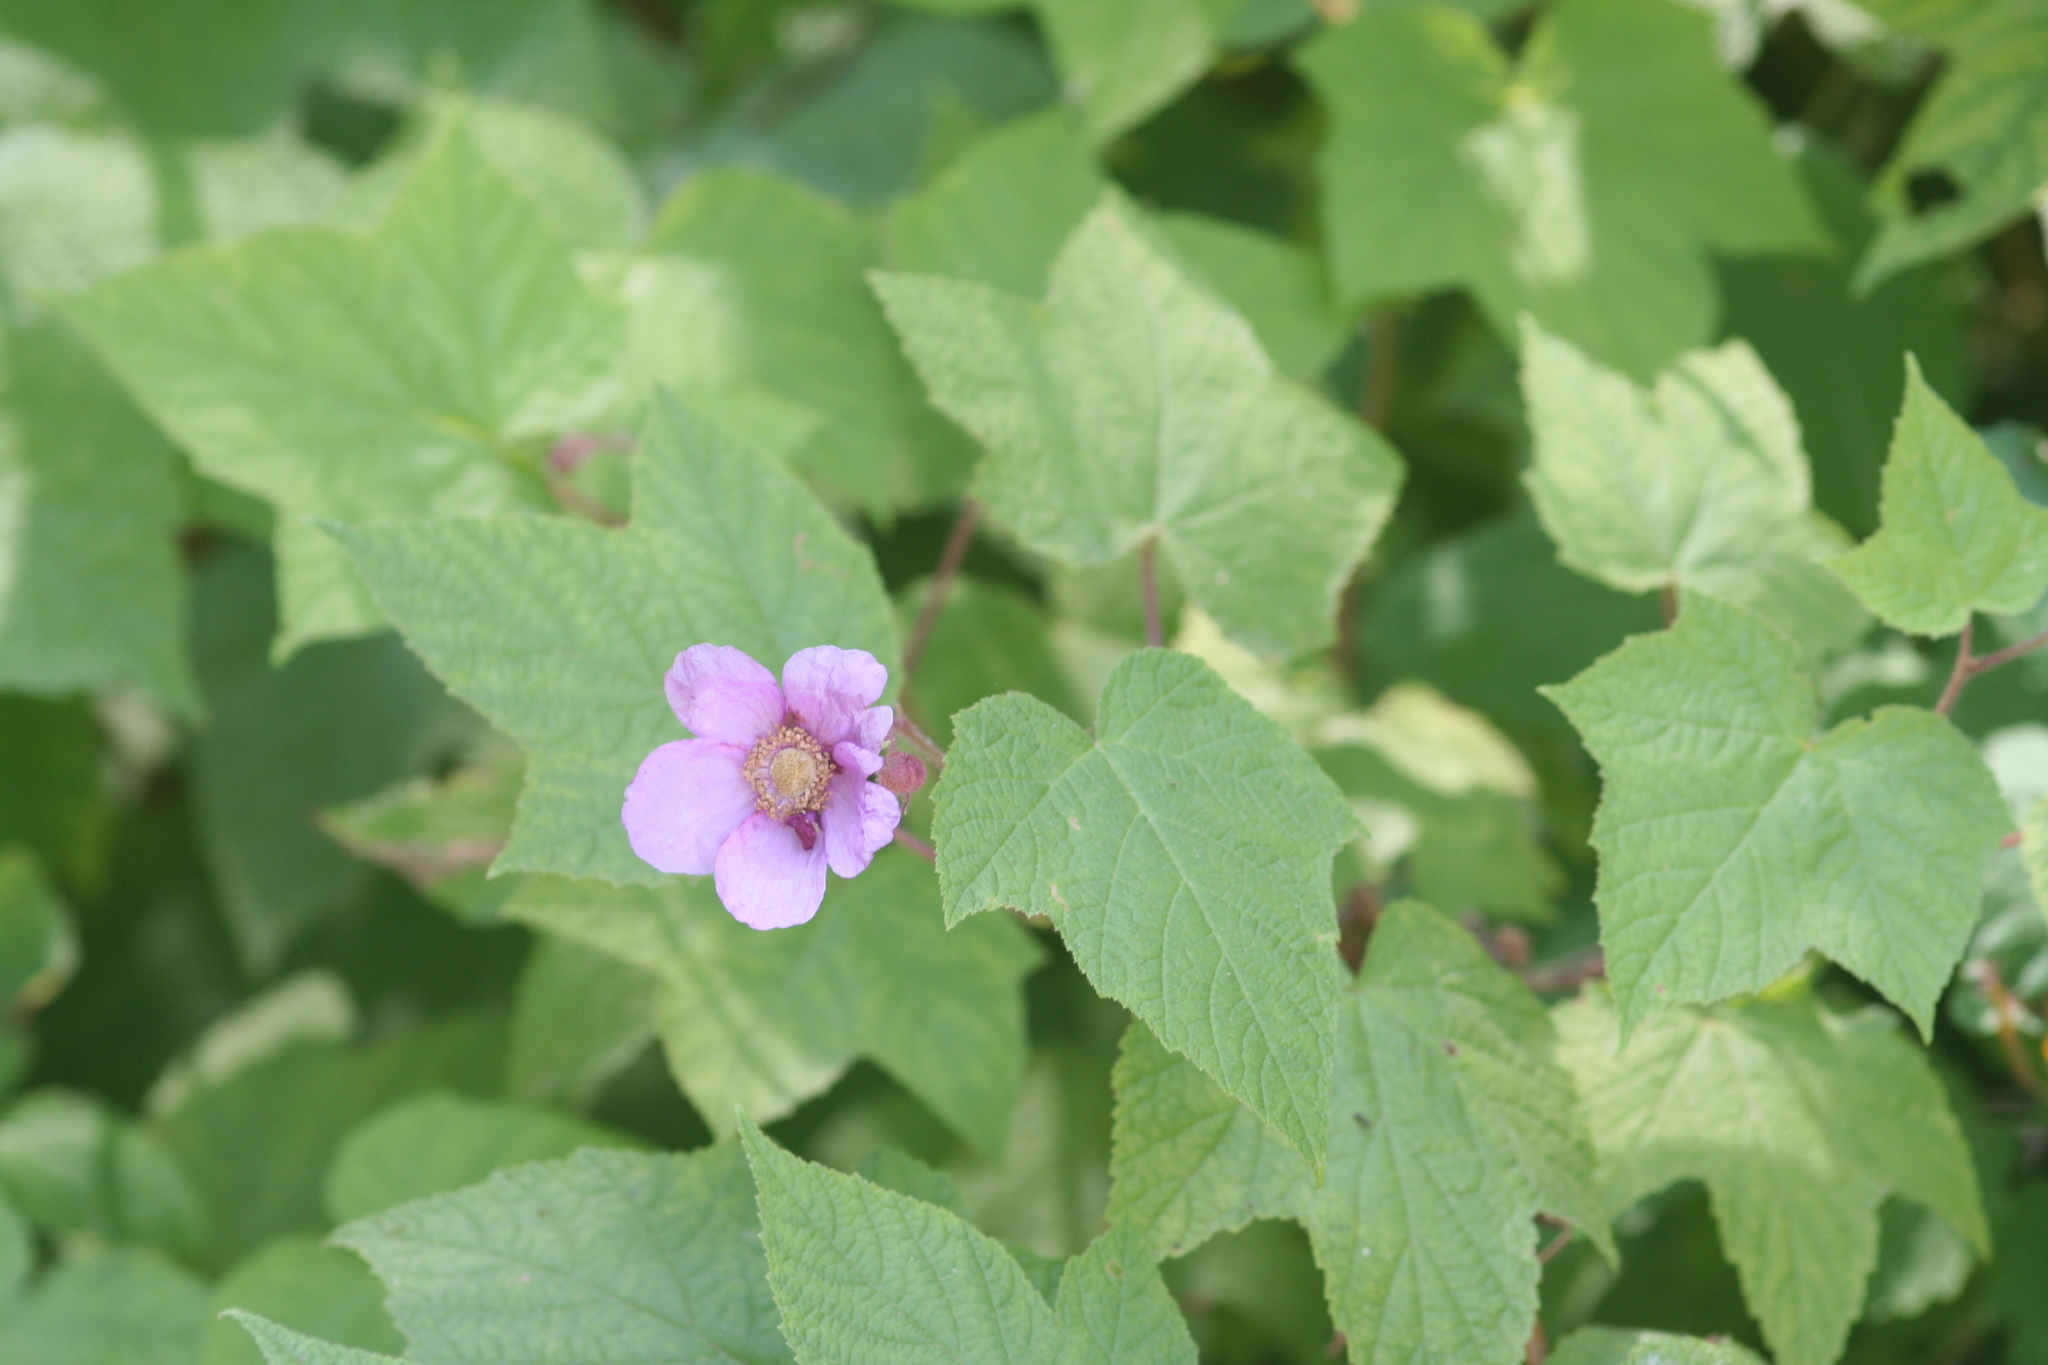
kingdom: Plantae
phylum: Tracheophyta
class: Magnoliopsida
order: Rosales
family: Rosaceae
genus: Rubus
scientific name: Rubus odoratus
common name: Purple-flowered raspberry
